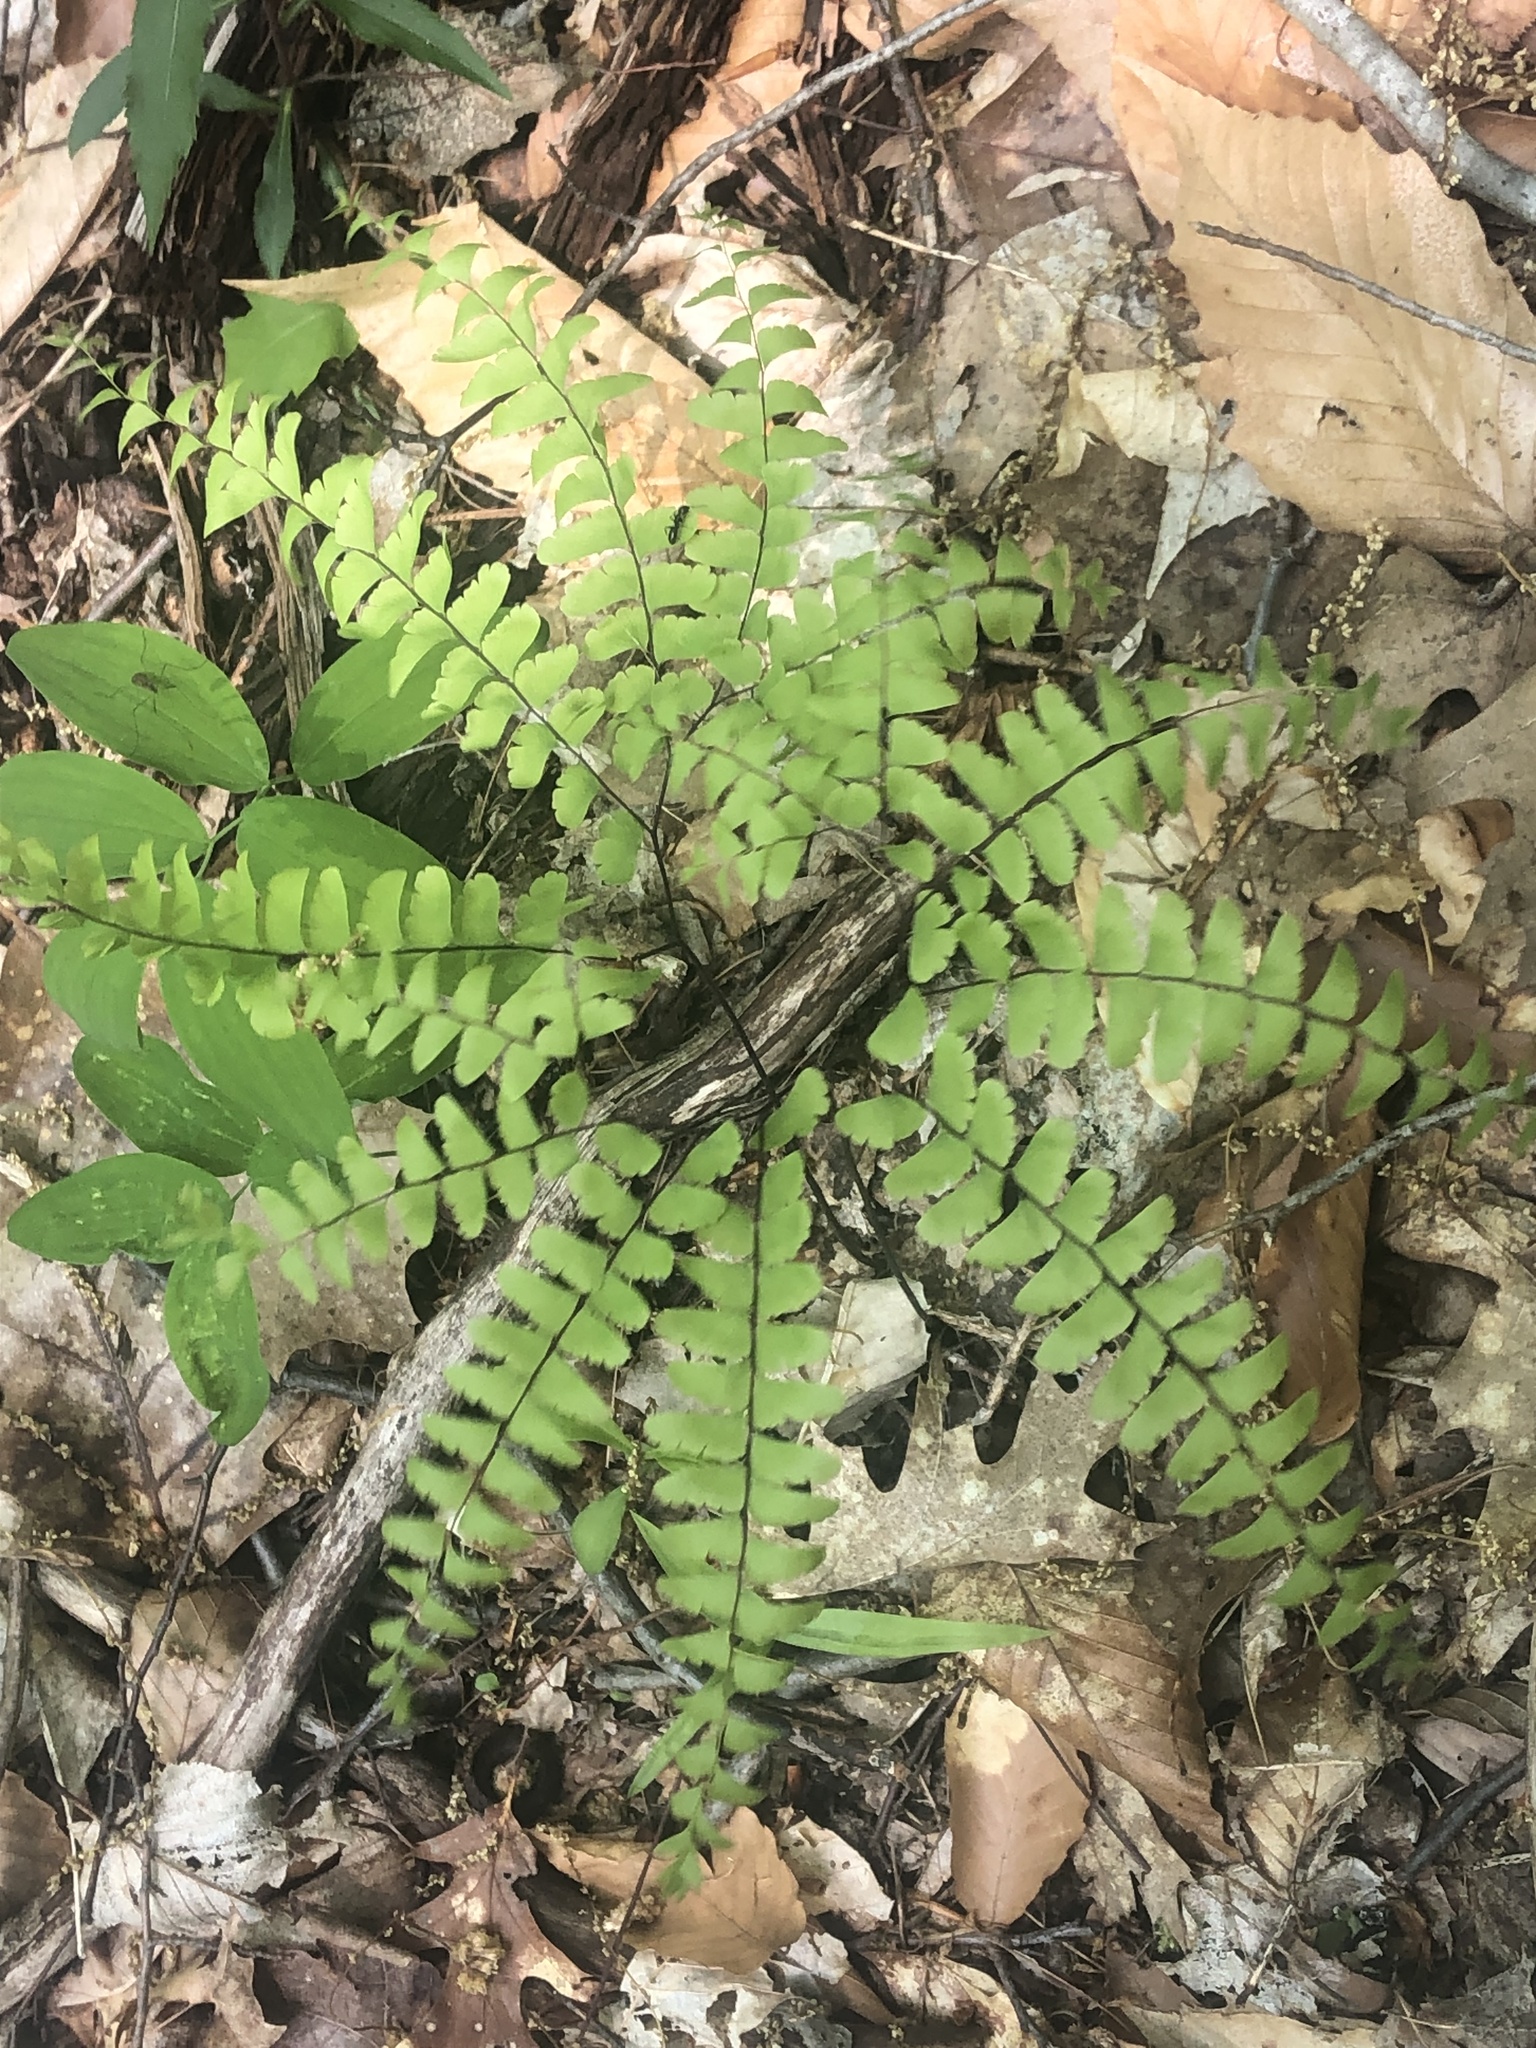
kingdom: Plantae
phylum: Tracheophyta
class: Polypodiopsida
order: Polypodiales
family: Pteridaceae
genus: Adiantum
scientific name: Adiantum pedatum
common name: Five-finger fern
